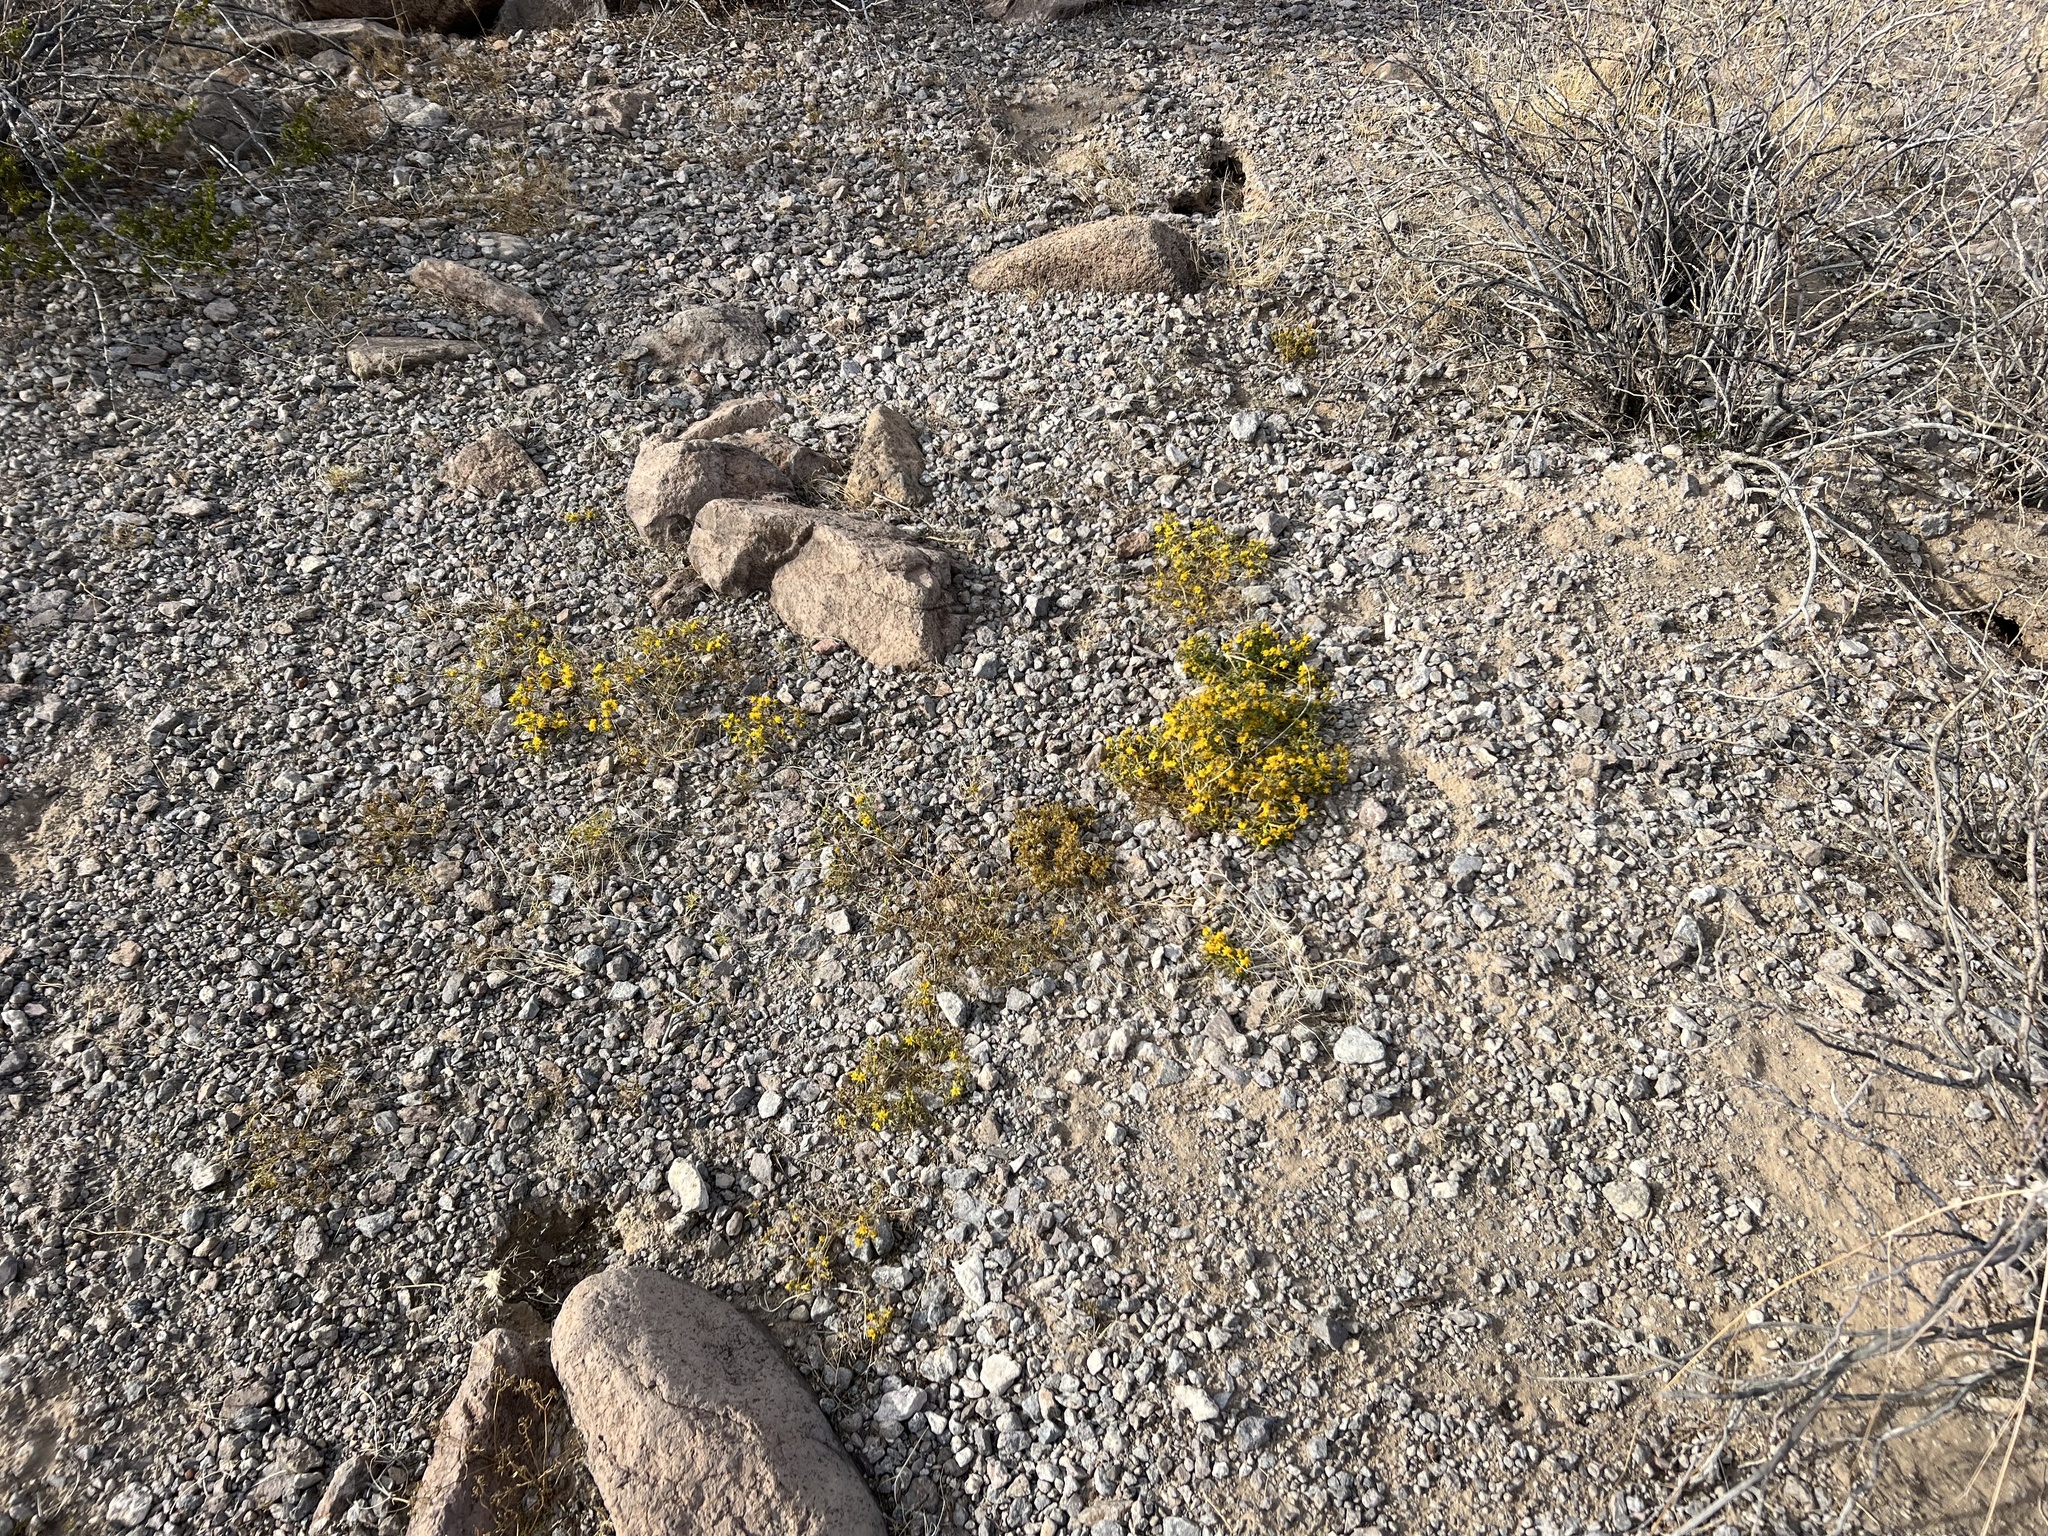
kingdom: Plantae
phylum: Tracheophyta
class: Magnoliopsida
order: Asterales
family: Asteraceae
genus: Pectis
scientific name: Pectis papposa
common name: Many-bristle chinchweed
